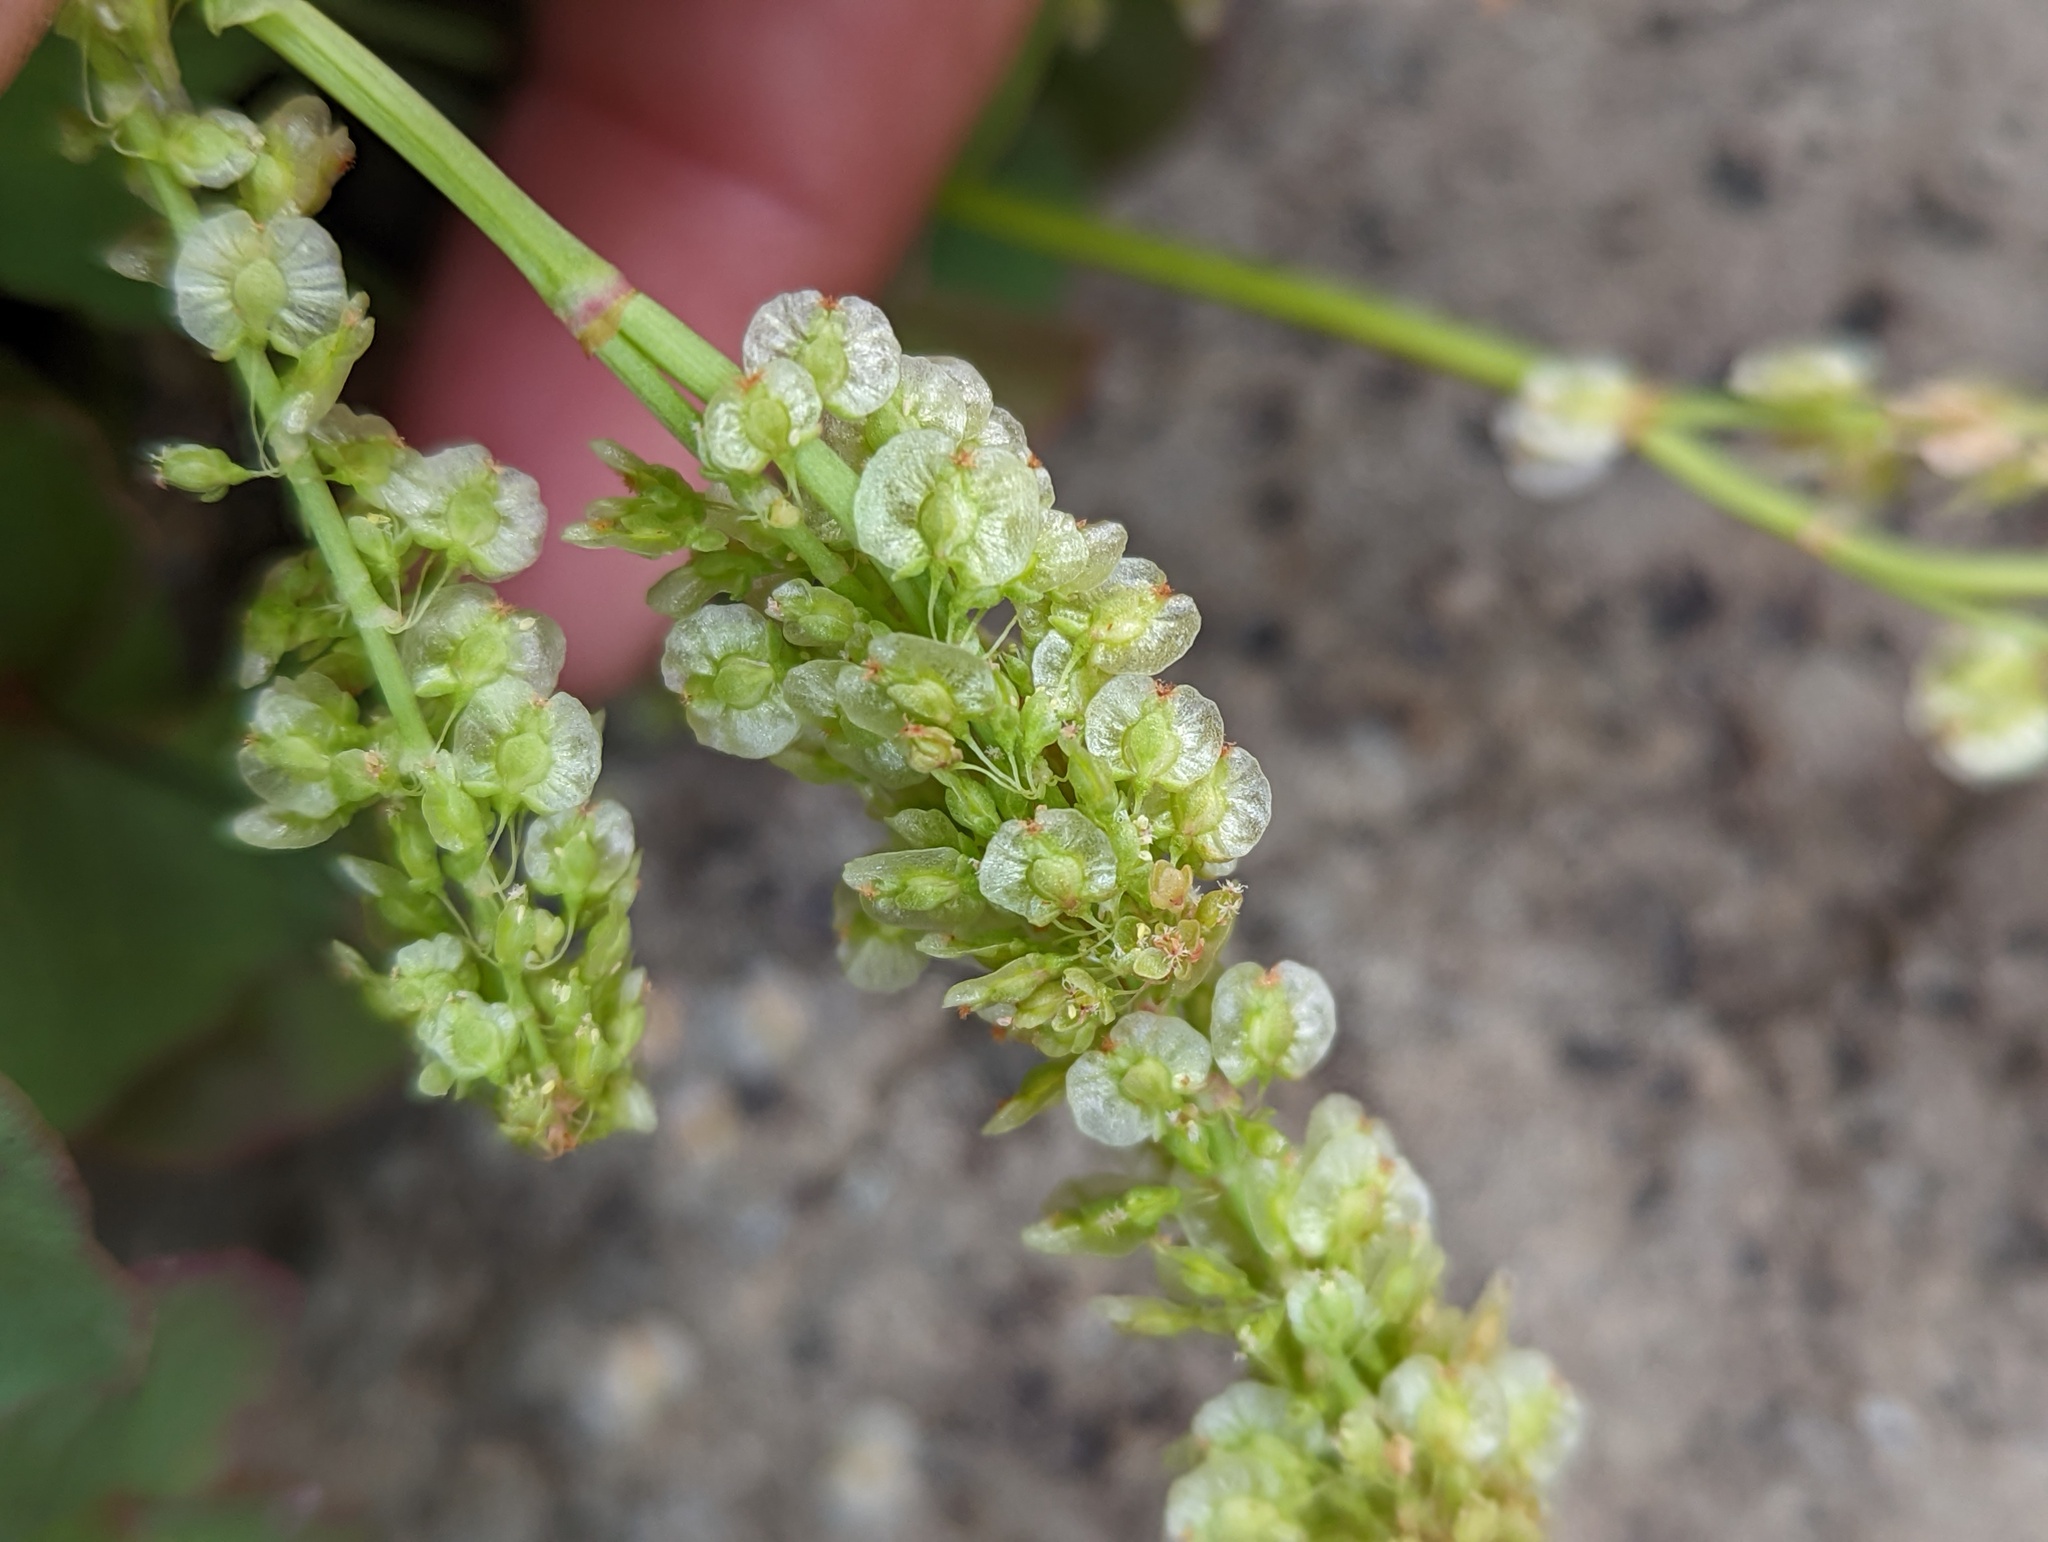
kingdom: Plantae
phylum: Tracheophyta
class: Magnoliopsida
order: Caryophyllales
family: Polygonaceae
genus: Oxyria
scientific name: Oxyria digyna
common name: Alpine mountain-sorrel
